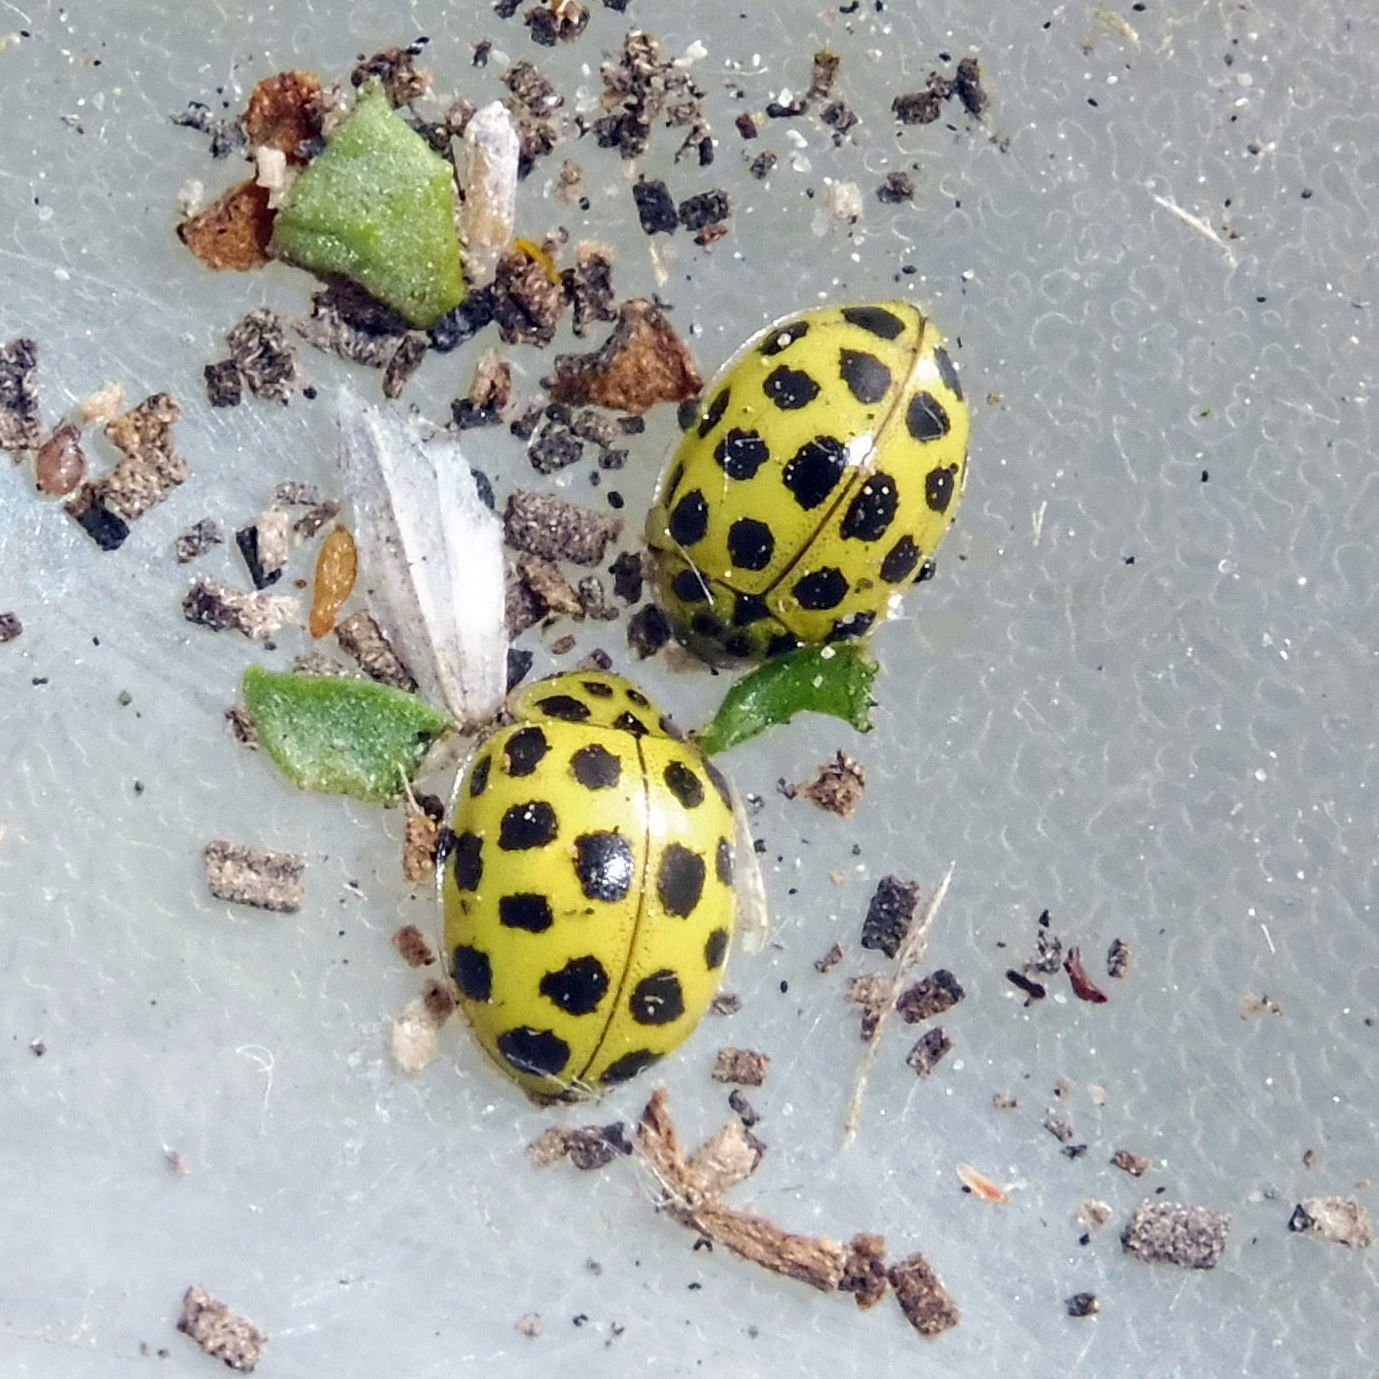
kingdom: Animalia
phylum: Arthropoda
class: Insecta
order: Coleoptera
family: Coccinellidae
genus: Psyllobora
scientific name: Psyllobora vigintiduopunctata
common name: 22-spot ladybird
